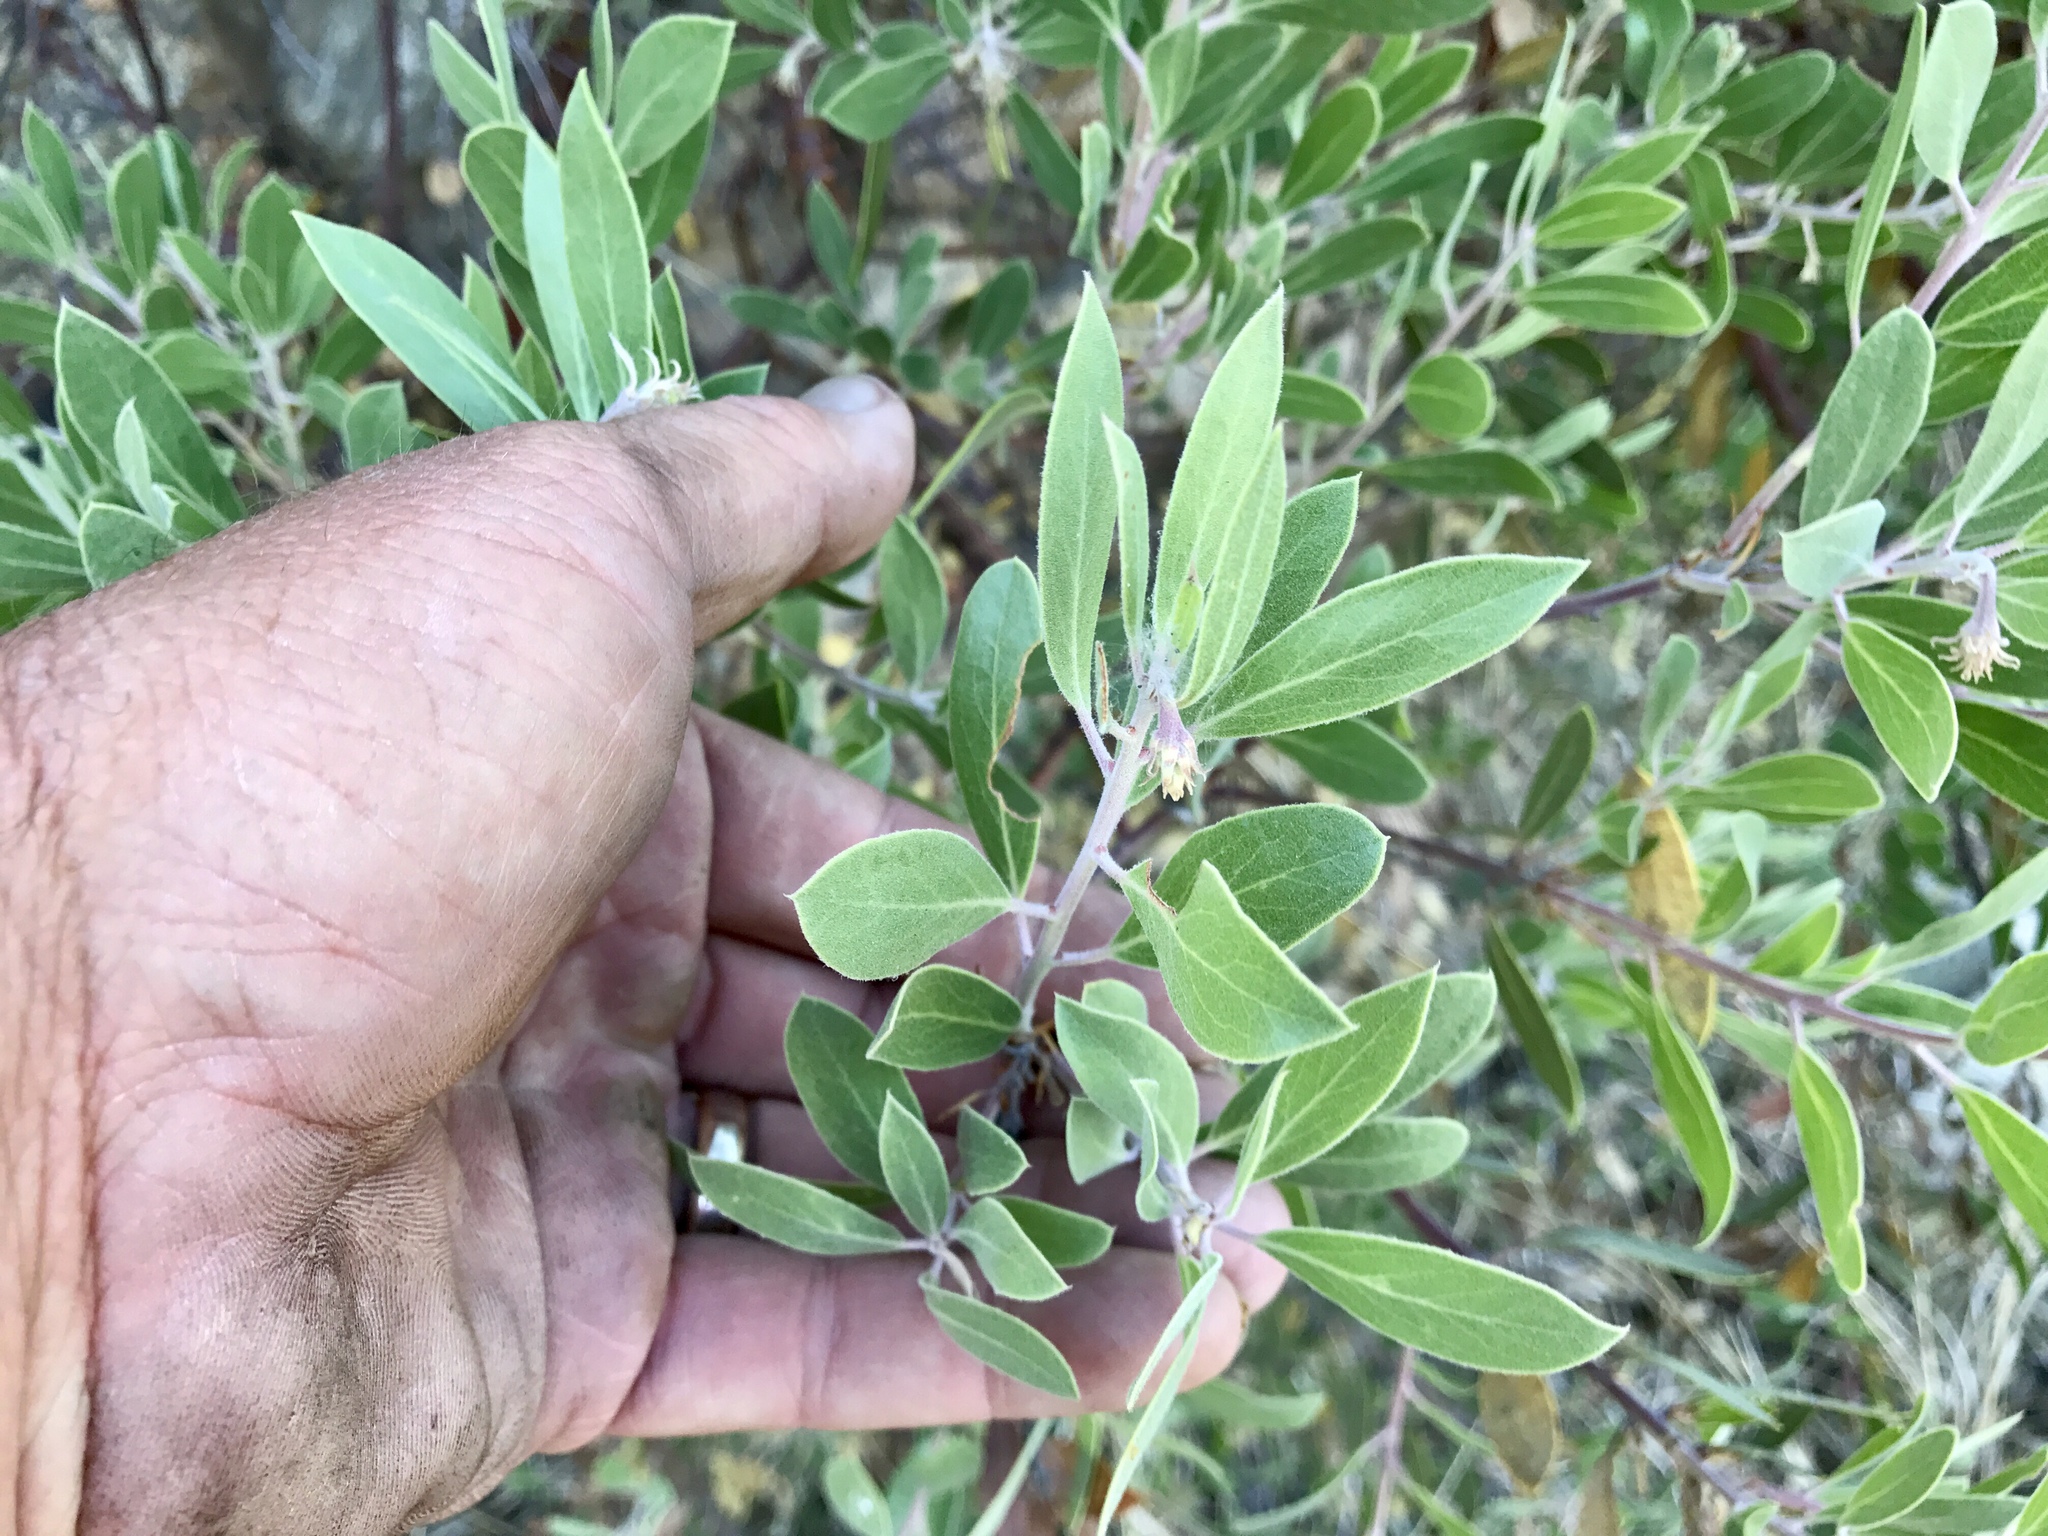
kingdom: Plantae
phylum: Tracheophyta
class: Magnoliopsida
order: Ericales
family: Ericaceae
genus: Arctostaphylos
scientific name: Arctostaphylos pungens
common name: Mexican manzanita
